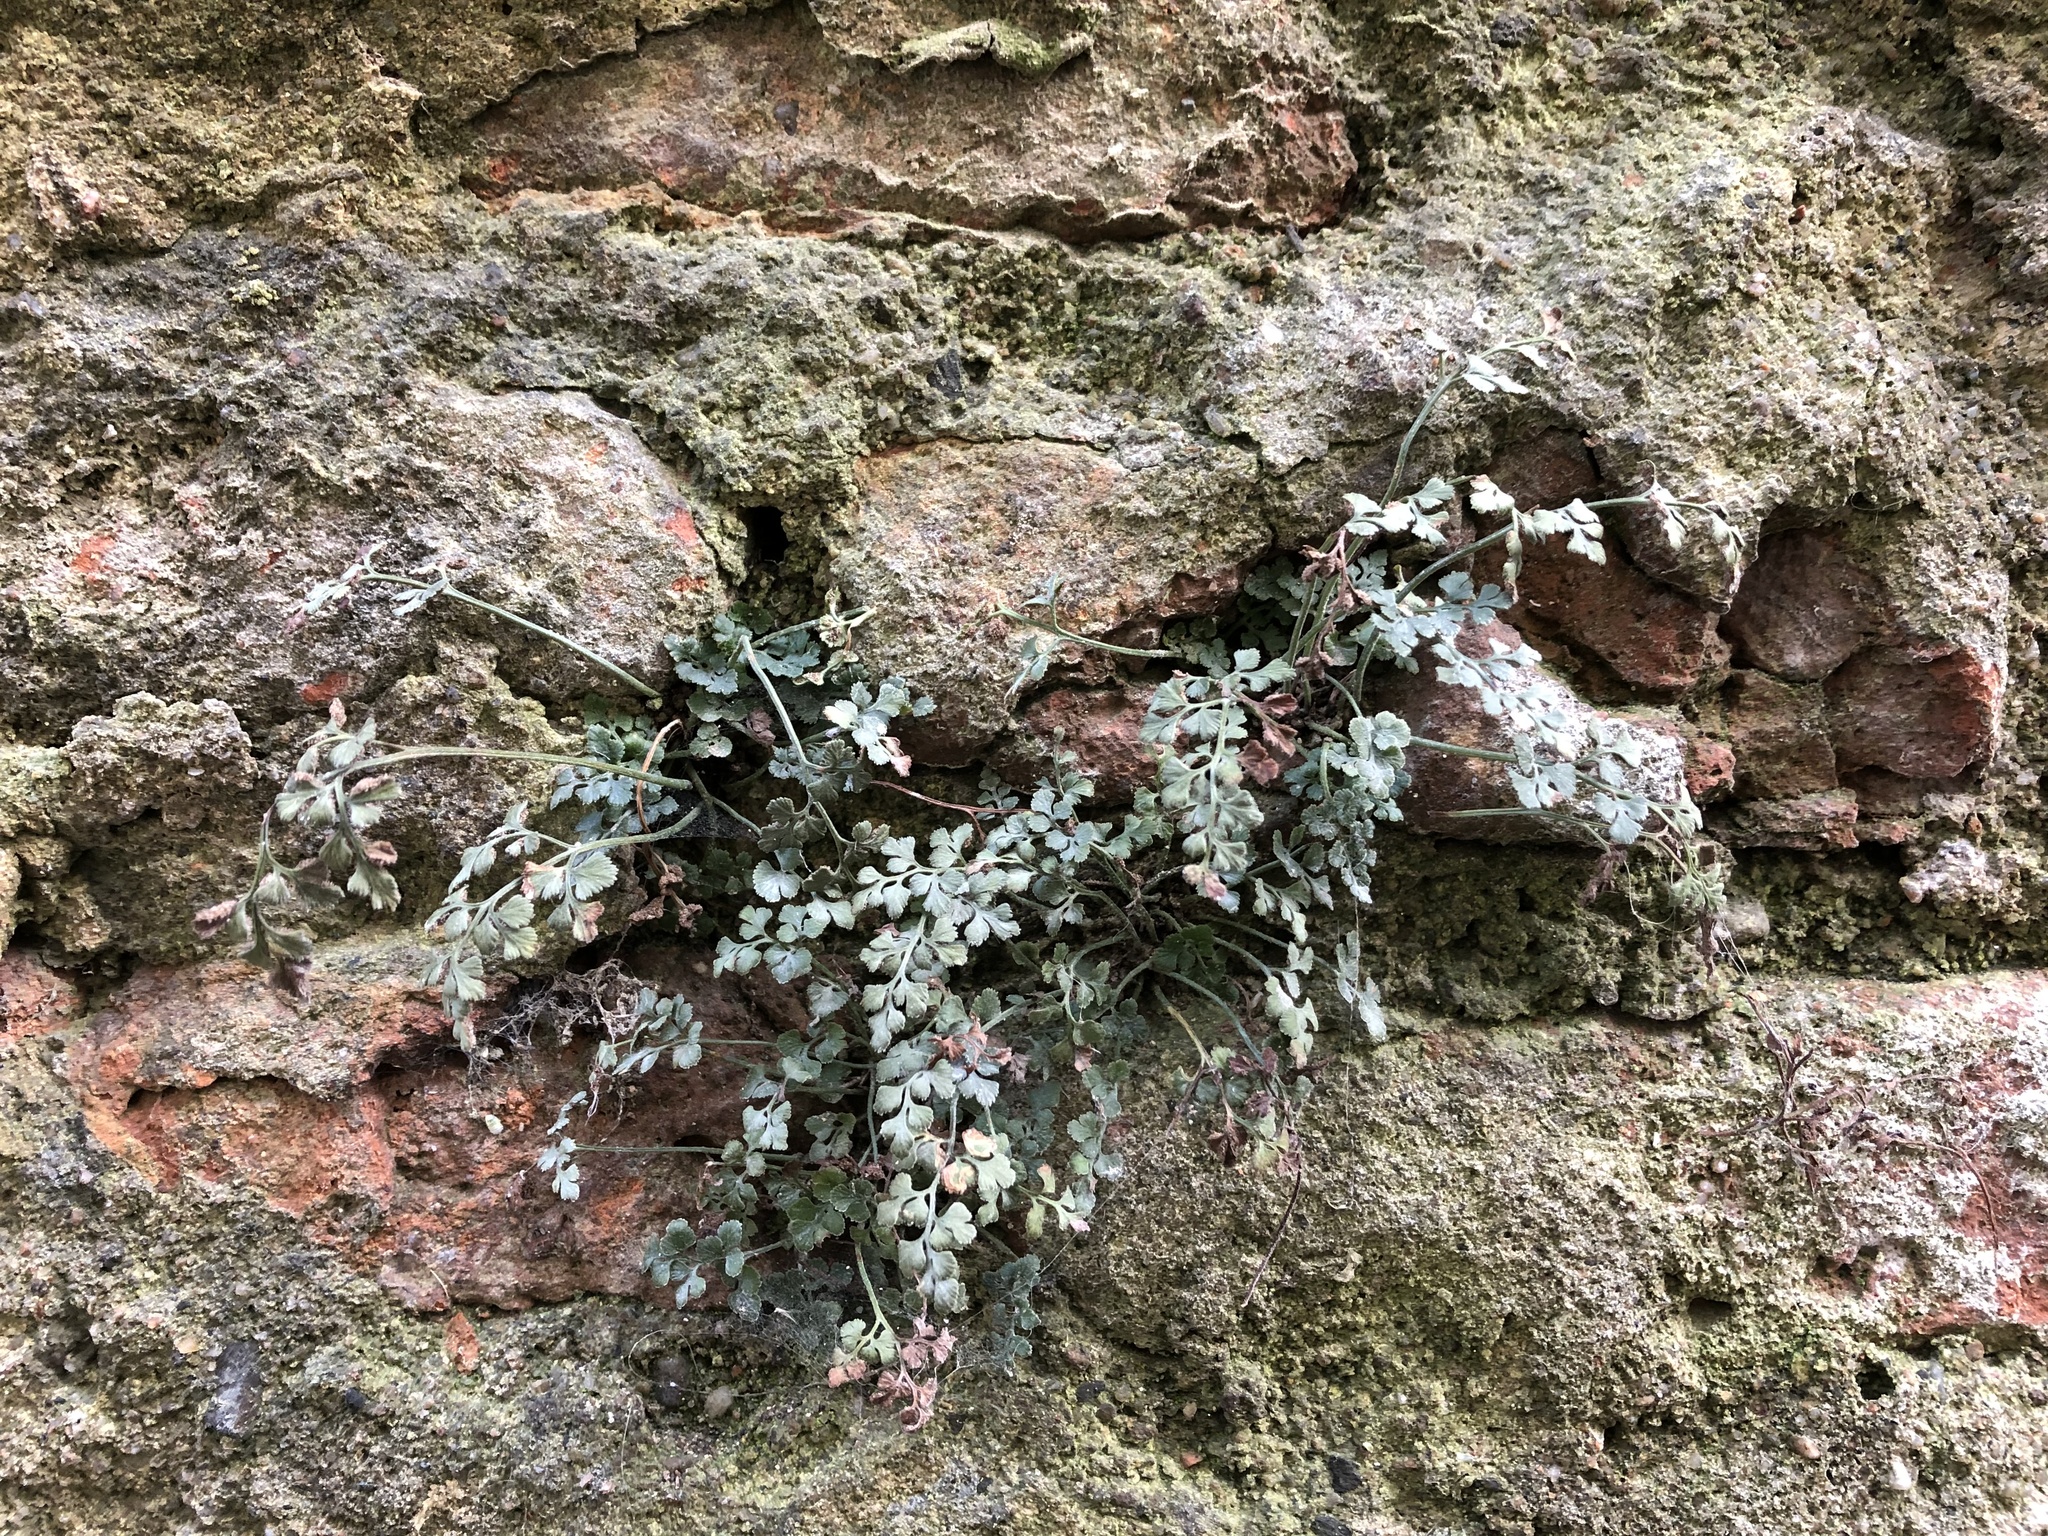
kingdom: Plantae
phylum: Tracheophyta
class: Polypodiopsida
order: Polypodiales
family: Aspleniaceae
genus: Asplenium
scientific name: Asplenium ruta-muraria
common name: Wall-rue
